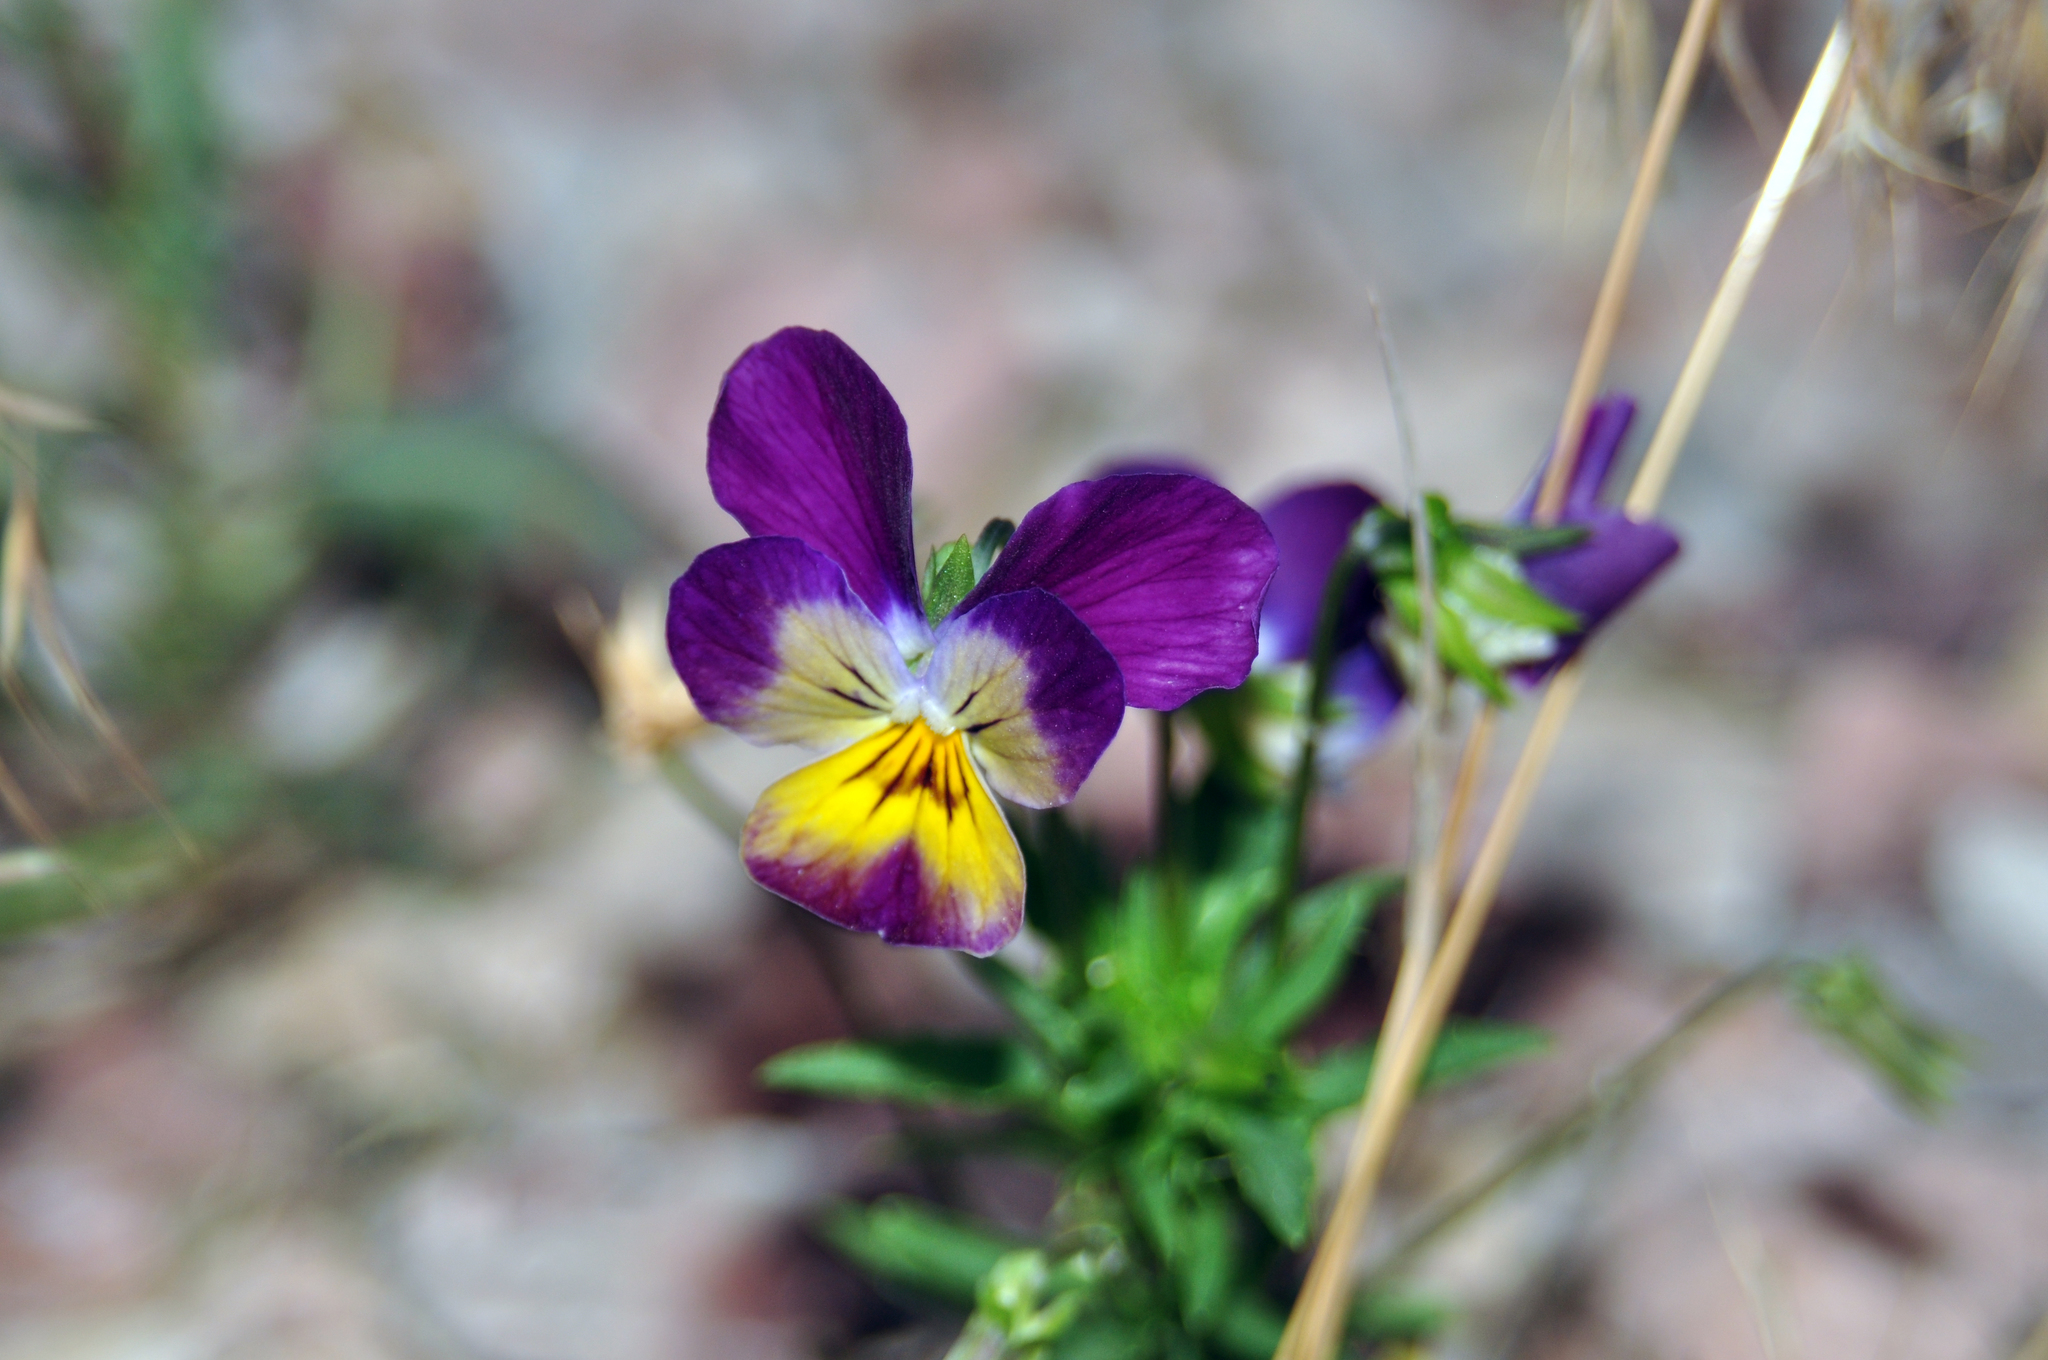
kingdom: Plantae
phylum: Tracheophyta
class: Magnoliopsida
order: Malpighiales
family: Violaceae
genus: Viola
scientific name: Viola williamsii
